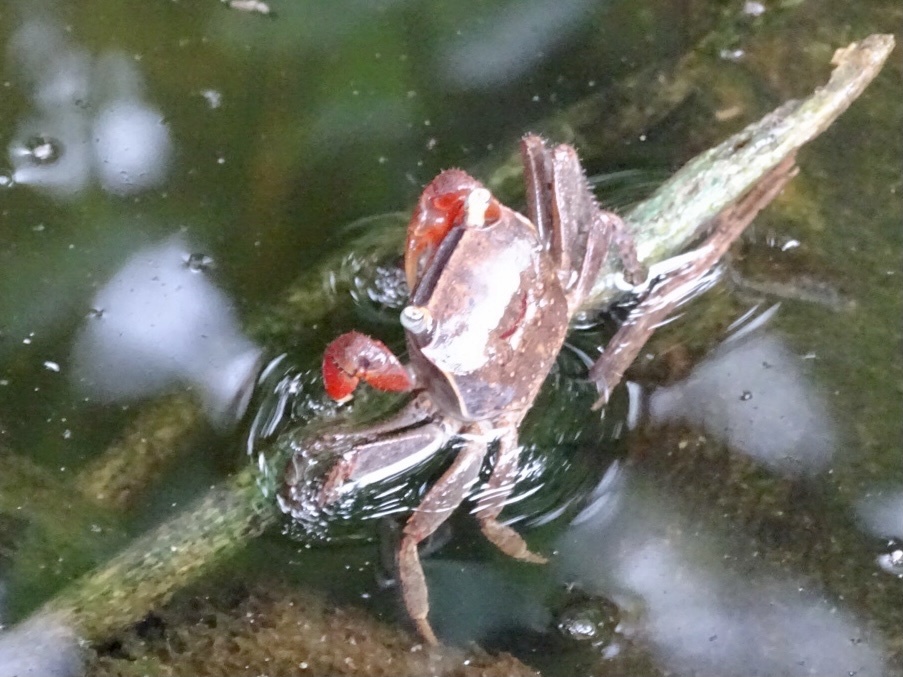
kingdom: Animalia
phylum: Arthropoda
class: Malacostraca
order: Decapoda
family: Sesarmidae
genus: Chiromantes
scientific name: Chiromantes haematocheir
